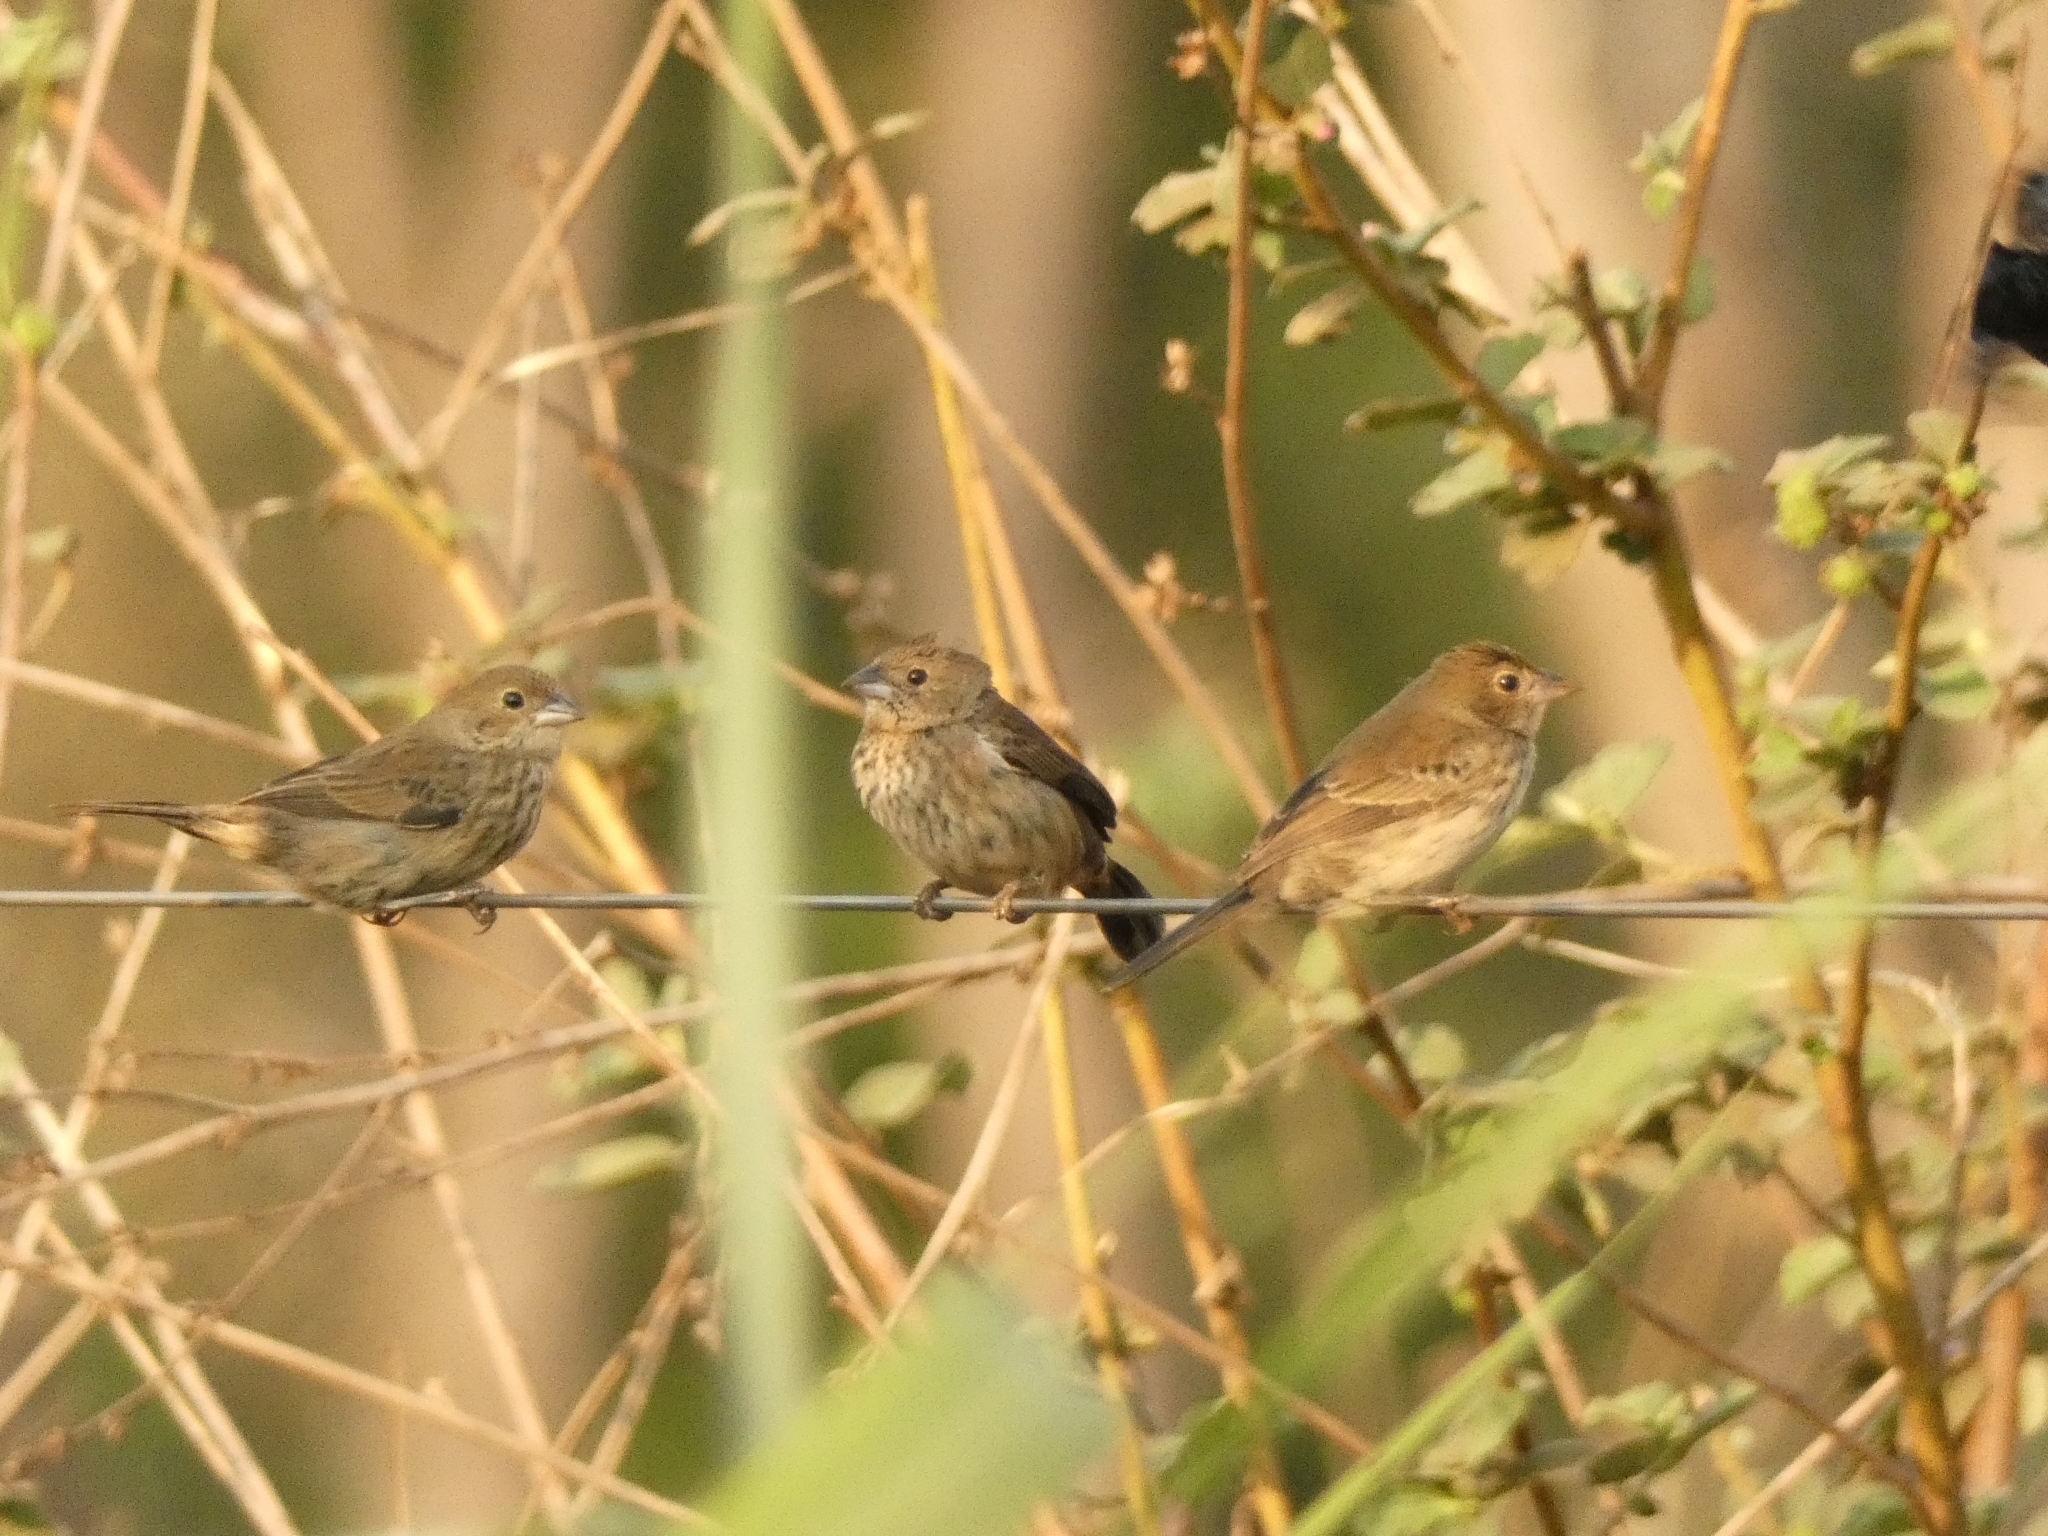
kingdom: Animalia
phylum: Chordata
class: Aves
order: Passeriformes
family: Thraupidae
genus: Volatinia
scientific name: Volatinia jacarina
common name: Blue-black grassquit
